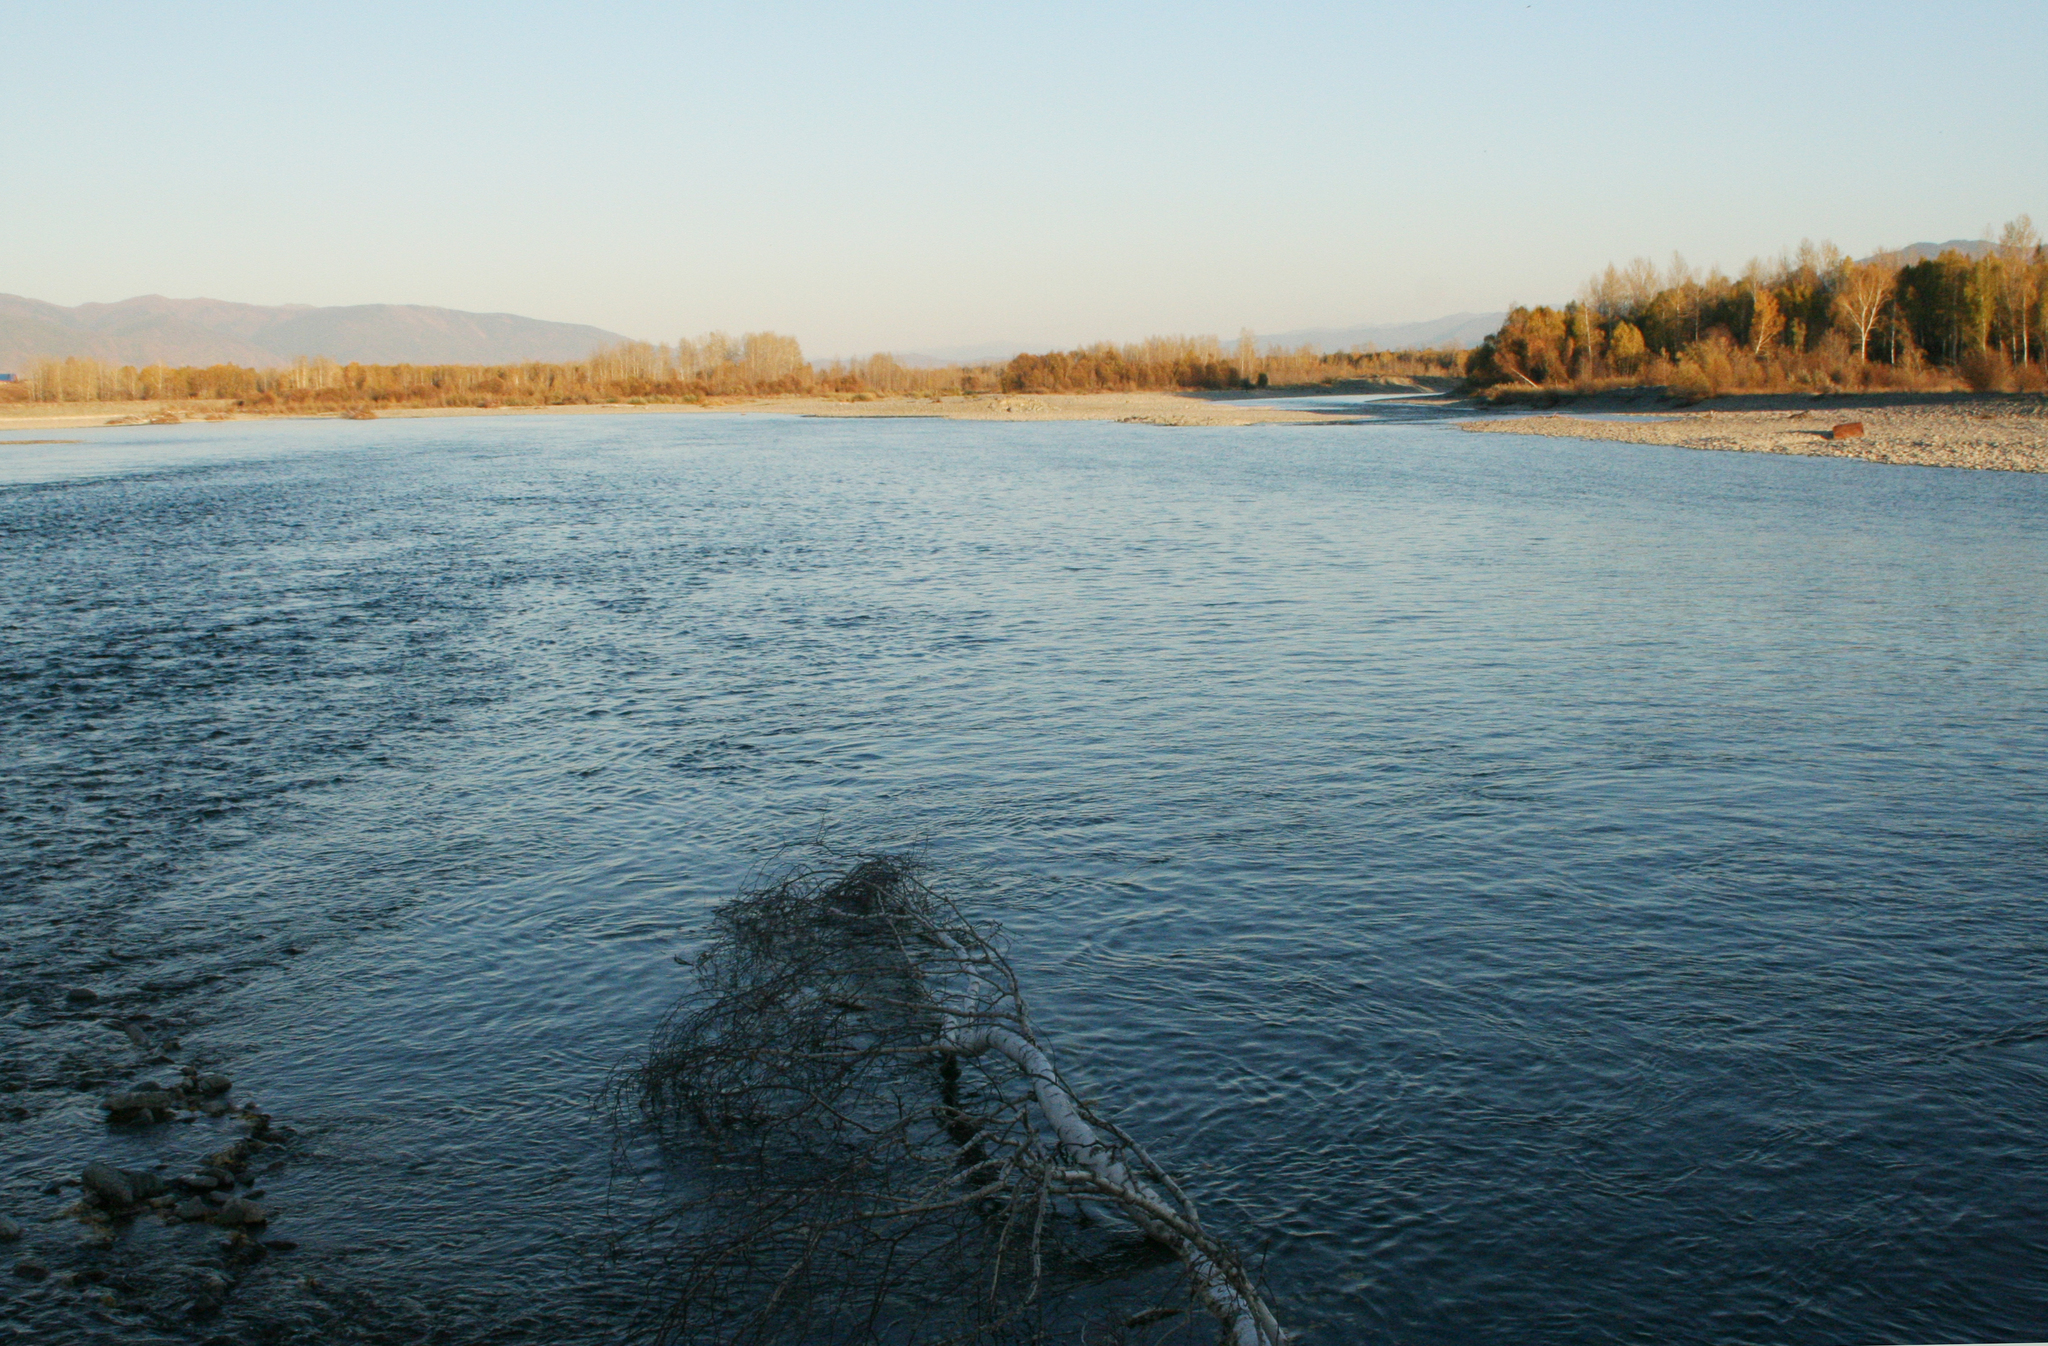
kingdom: Plantae
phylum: Tracheophyta
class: Magnoliopsida
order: Fagales
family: Betulaceae
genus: Betula
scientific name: Betula pendula
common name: Silver birch
